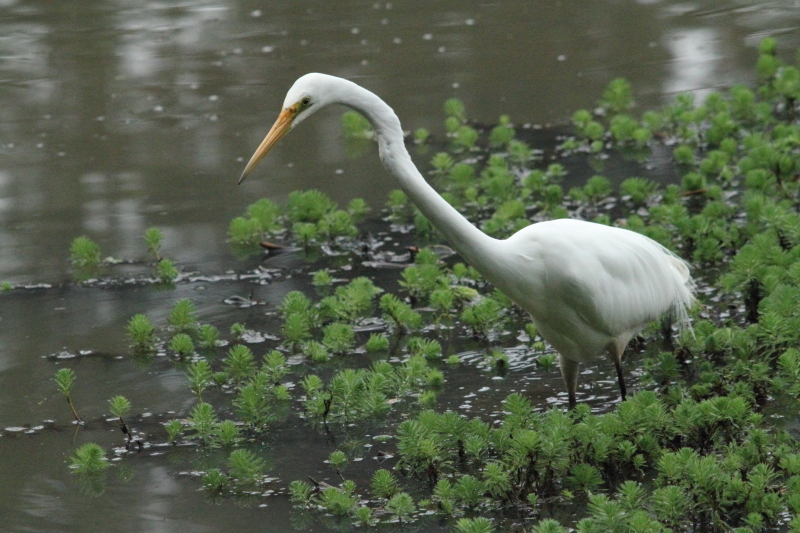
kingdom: Animalia
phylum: Chordata
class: Aves
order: Pelecaniformes
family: Ardeidae
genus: Ardea
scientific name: Ardea modesta
